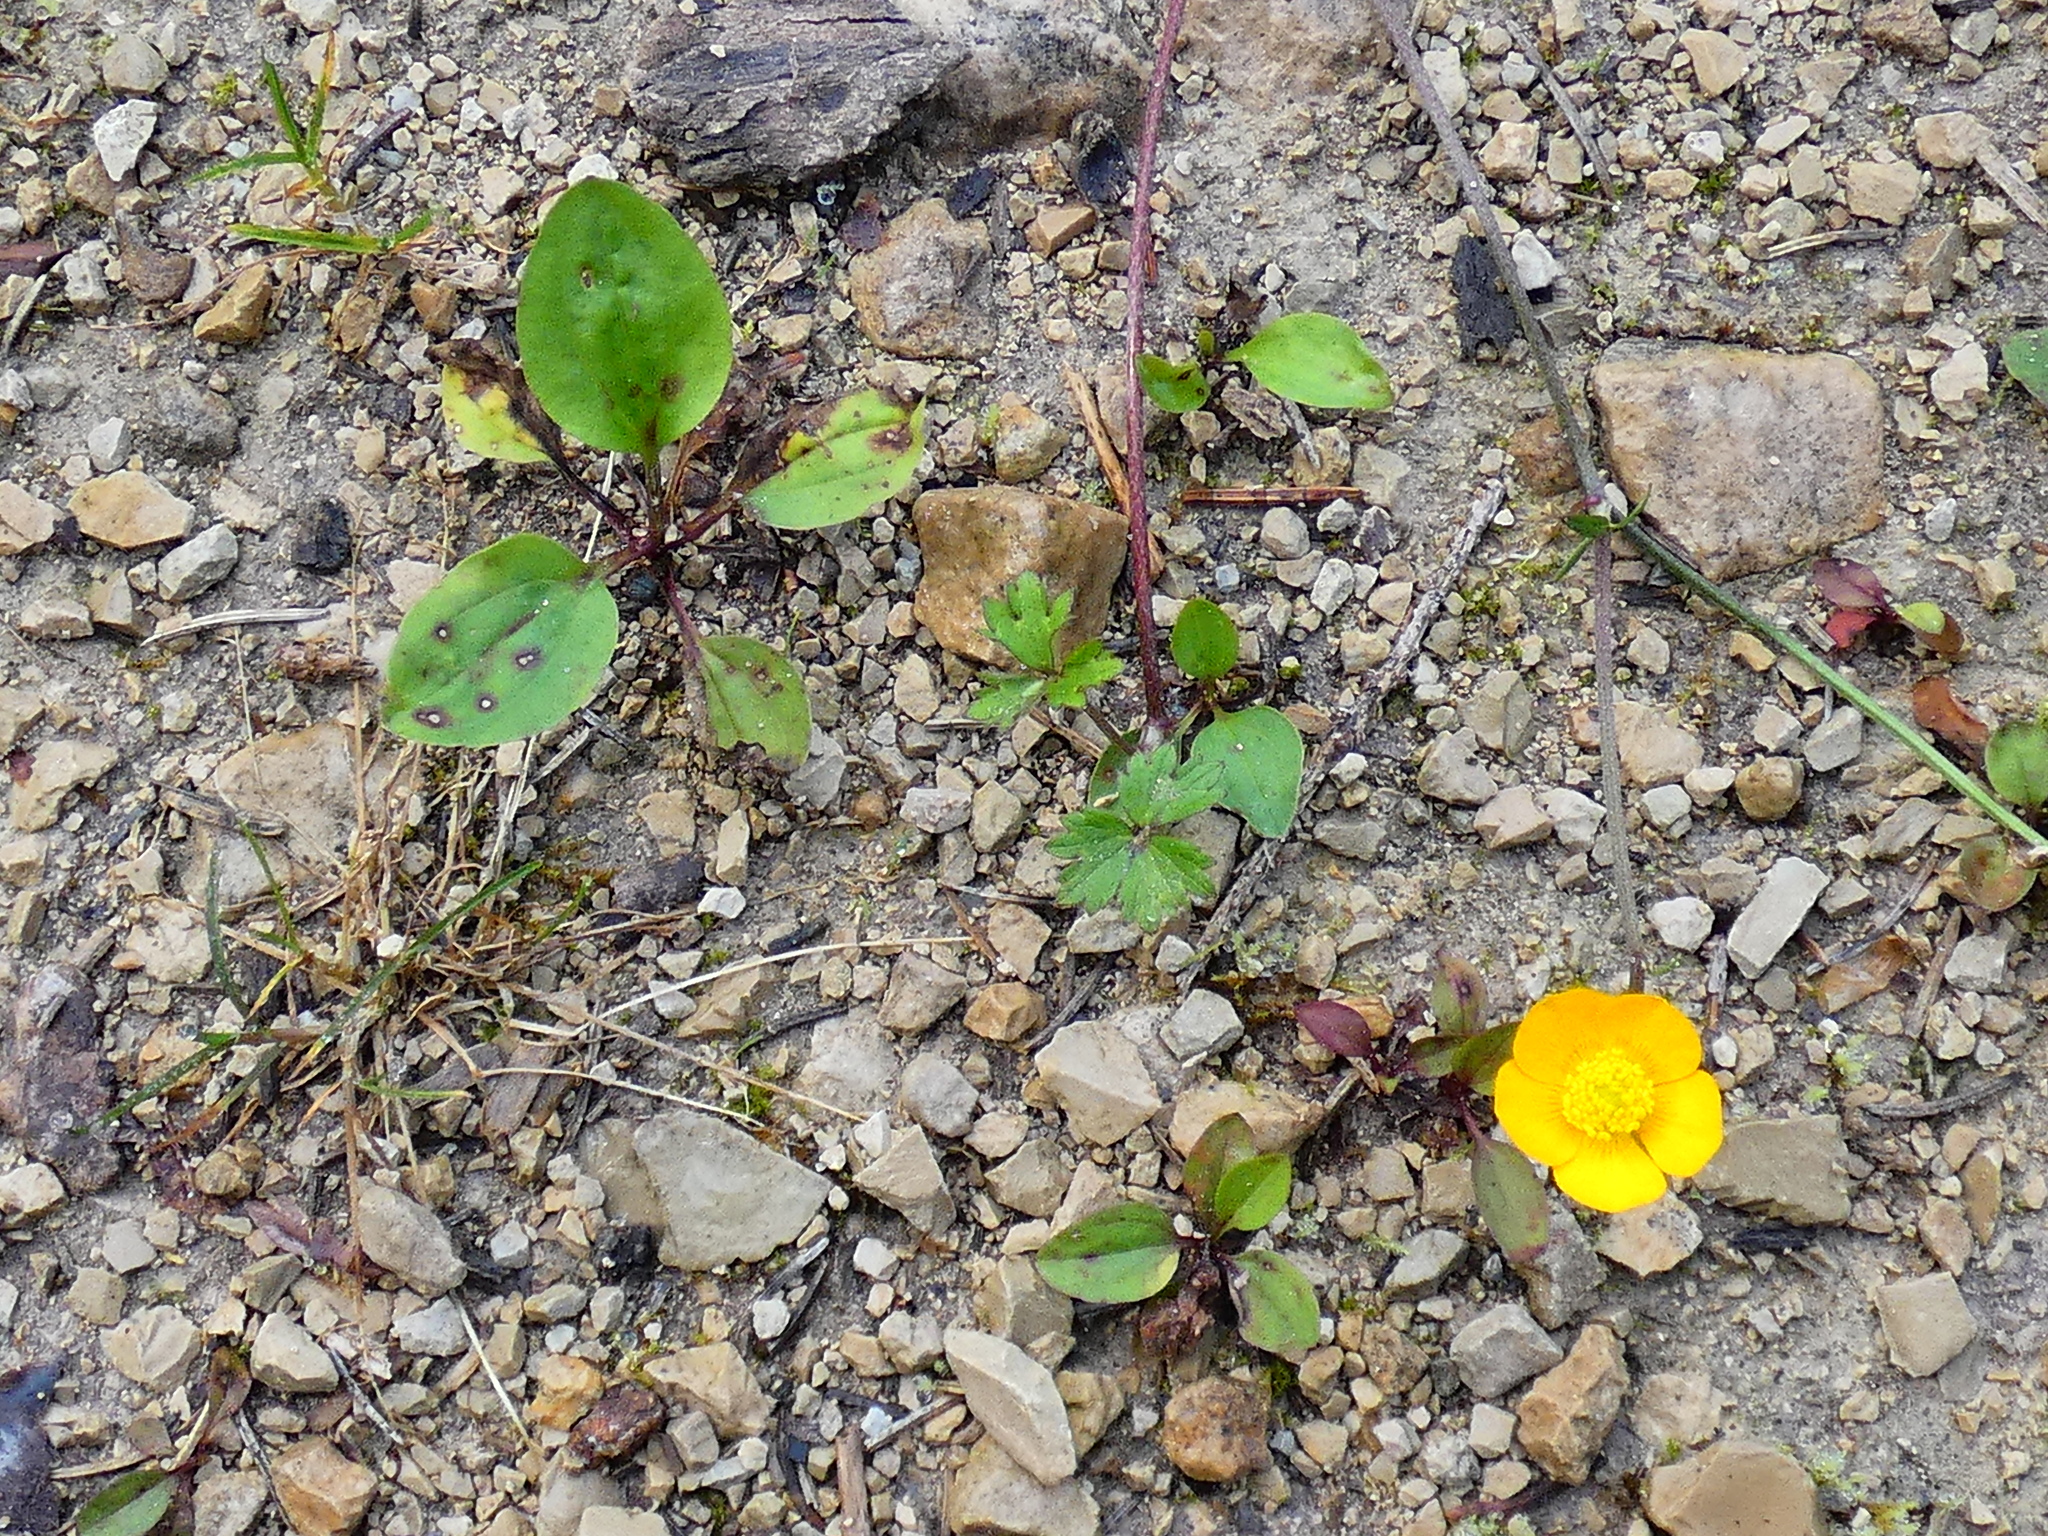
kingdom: Plantae
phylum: Tracheophyta
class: Magnoliopsida
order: Ranunculales
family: Ranunculaceae
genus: Ranunculus
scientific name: Ranunculus repens
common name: Creeping buttercup
